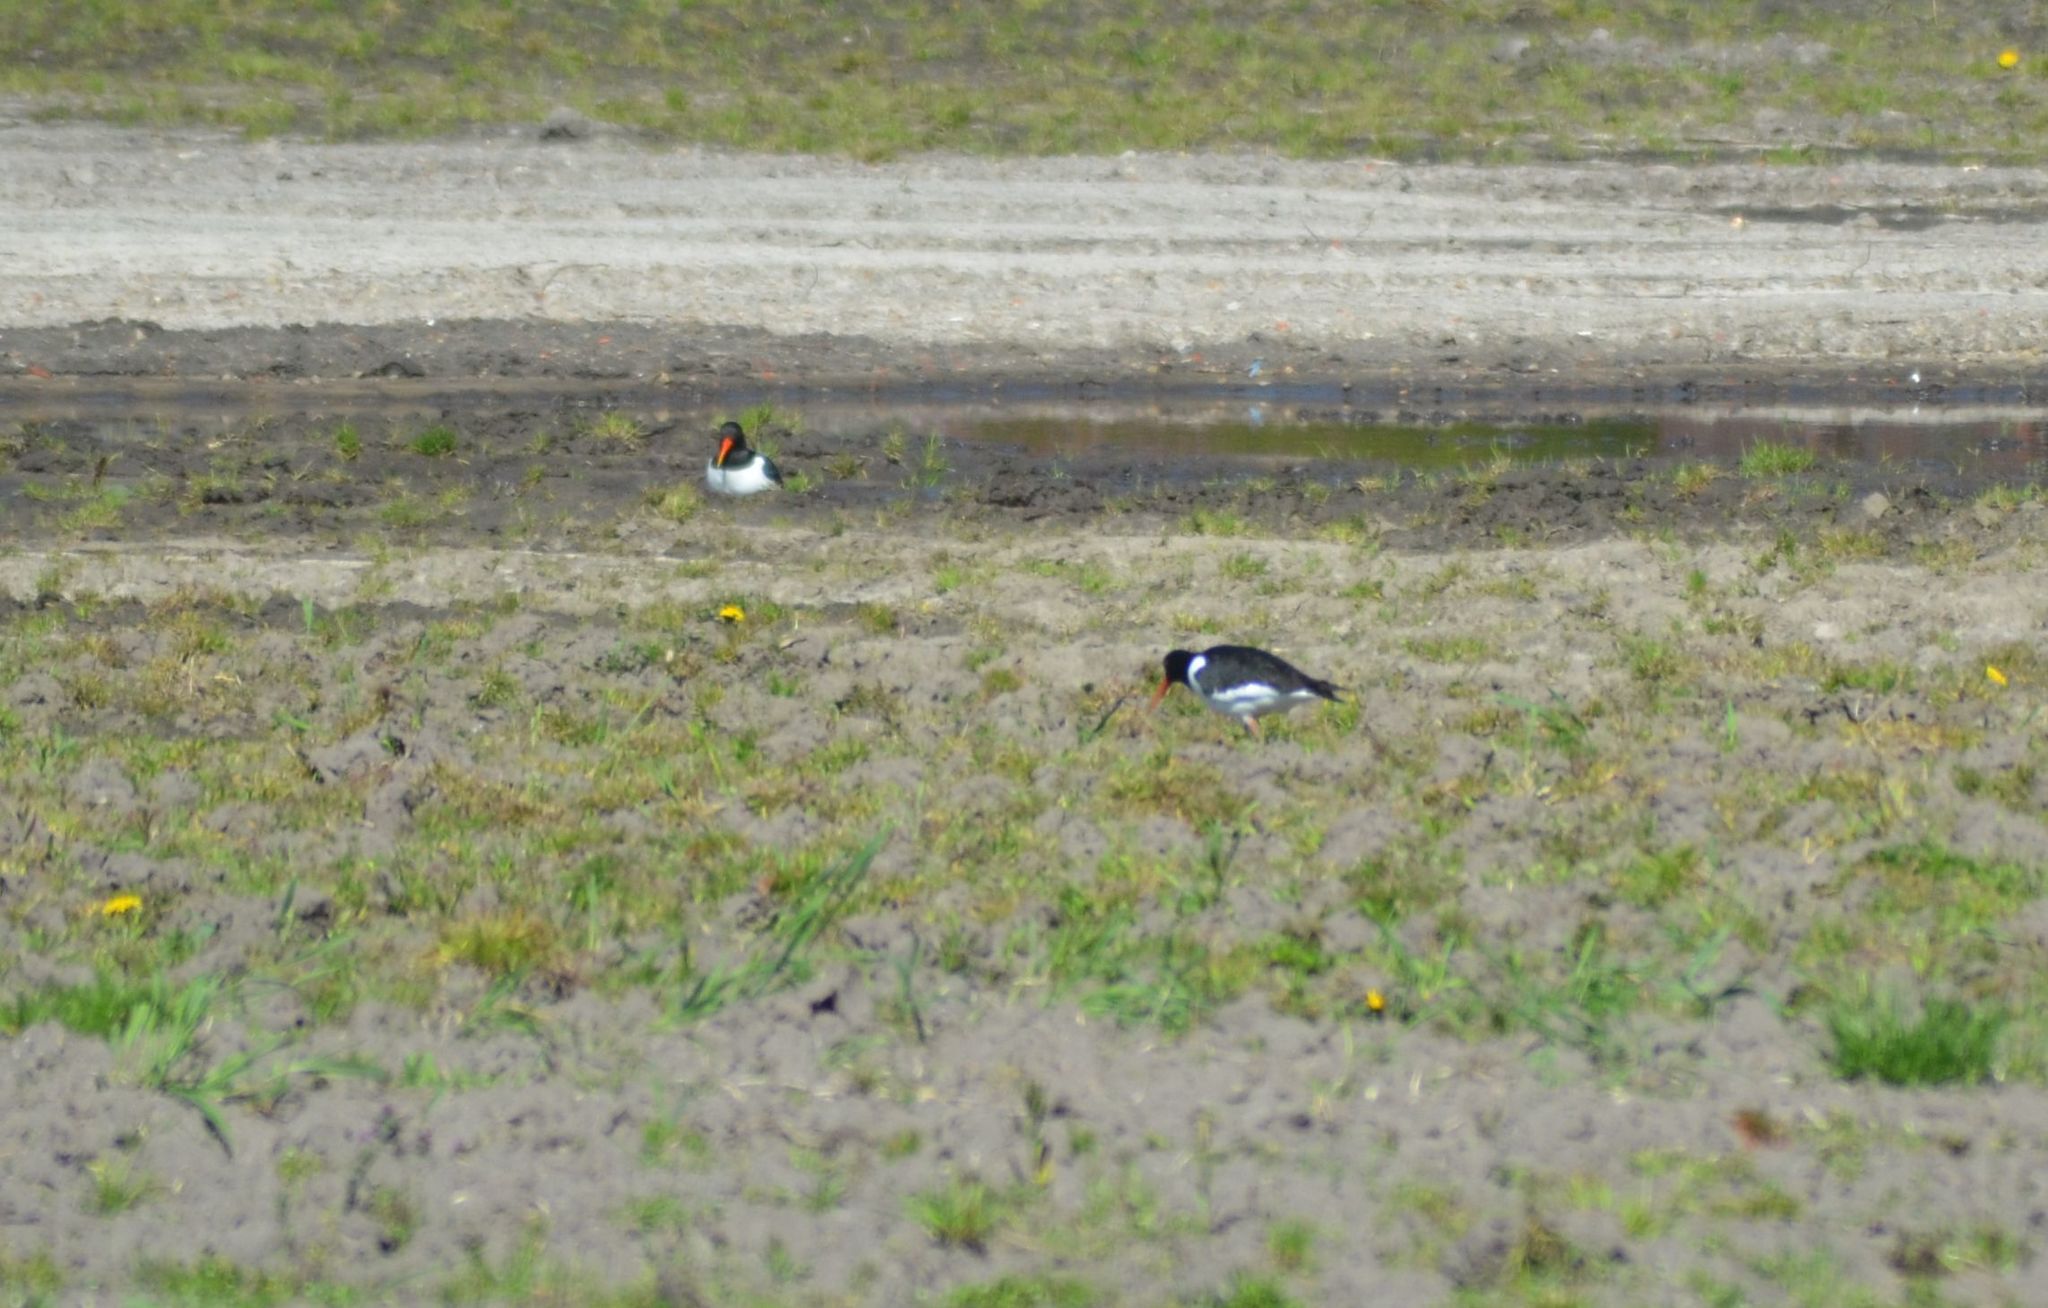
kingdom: Animalia
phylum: Chordata
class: Aves
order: Charadriiformes
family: Haematopodidae
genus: Haematopus
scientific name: Haematopus ostralegus
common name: Eurasian oystercatcher
